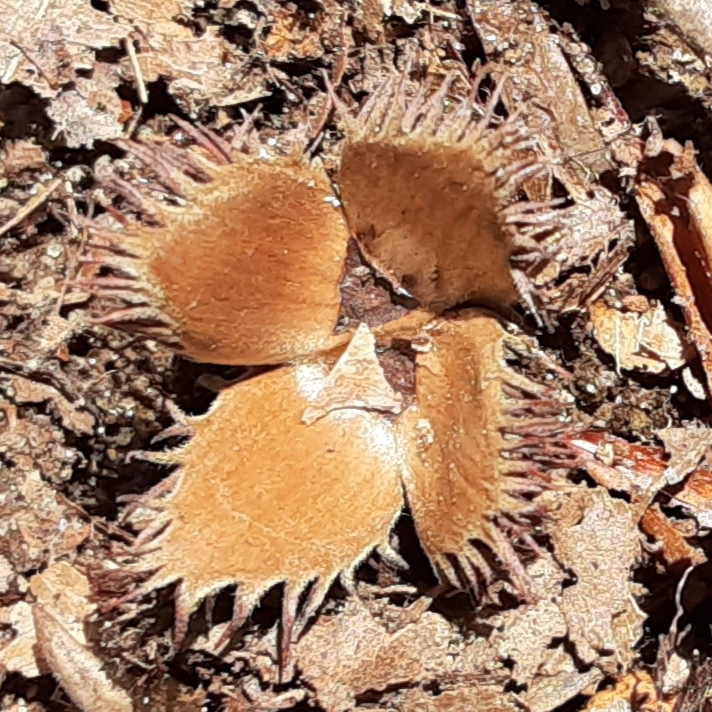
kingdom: Plantae
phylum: Tracheophyta
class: Magnoliopsida
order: Fagales
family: Fagaceae
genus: Fagus
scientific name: Fagus grandifolia
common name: American beech
